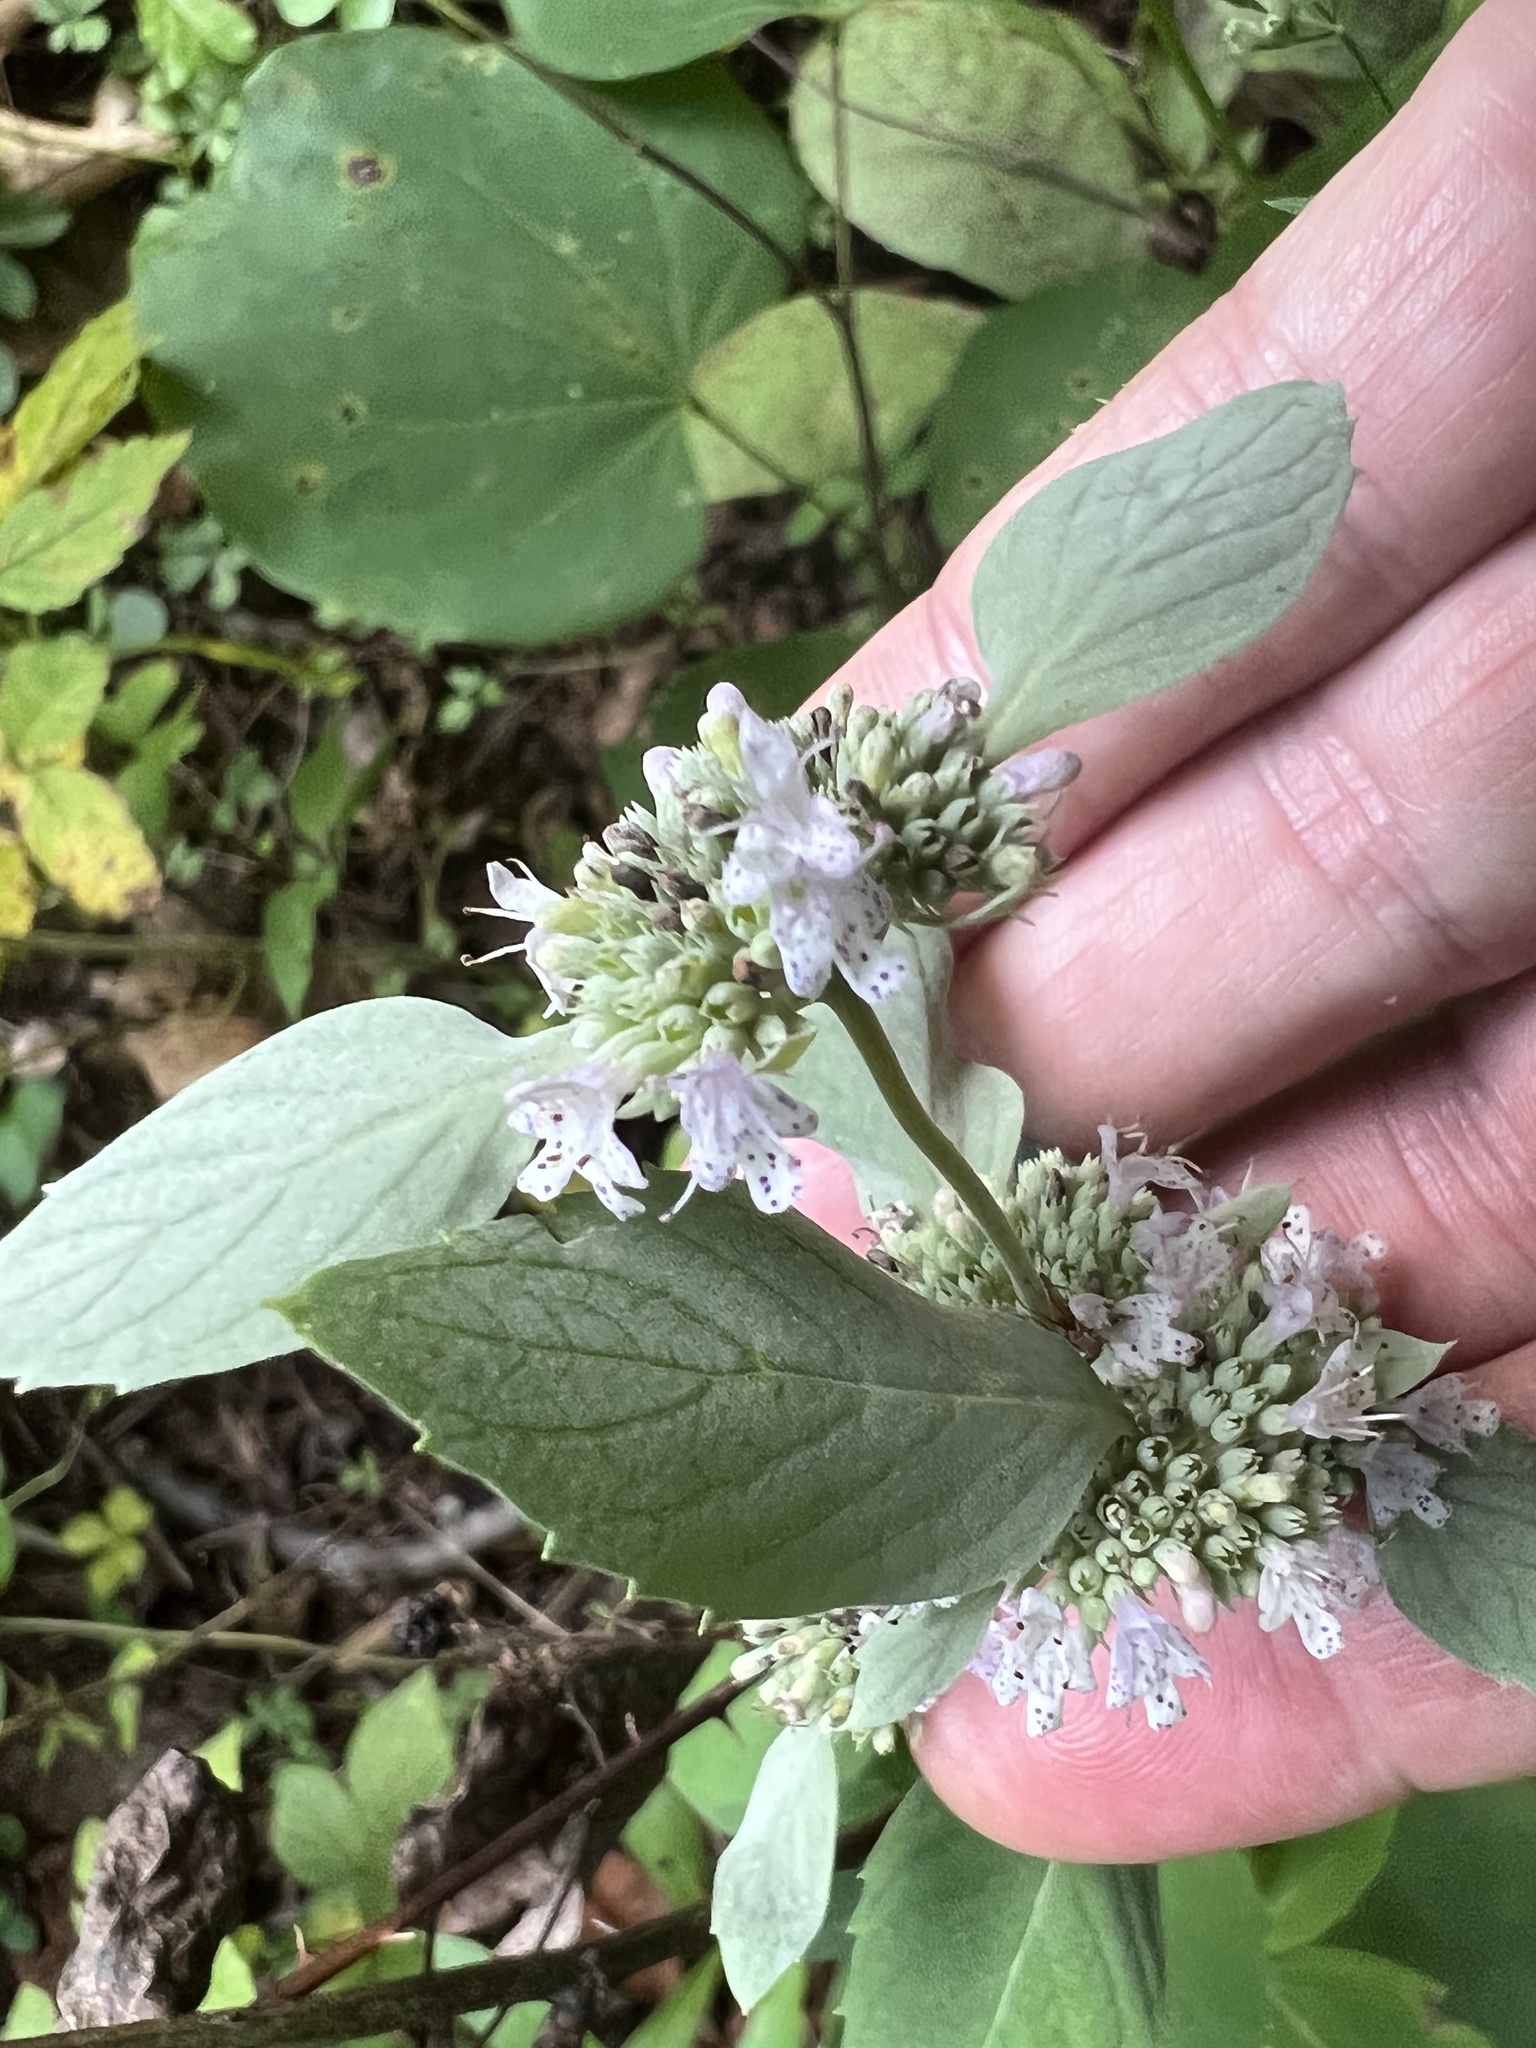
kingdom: Plantae
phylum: Tracheophyta
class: Magnoliopsida
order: Lamiales
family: Lamiaceae
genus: Pycnanthemum
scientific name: Pycnanthemum incanum
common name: Hoary mountain-mint
